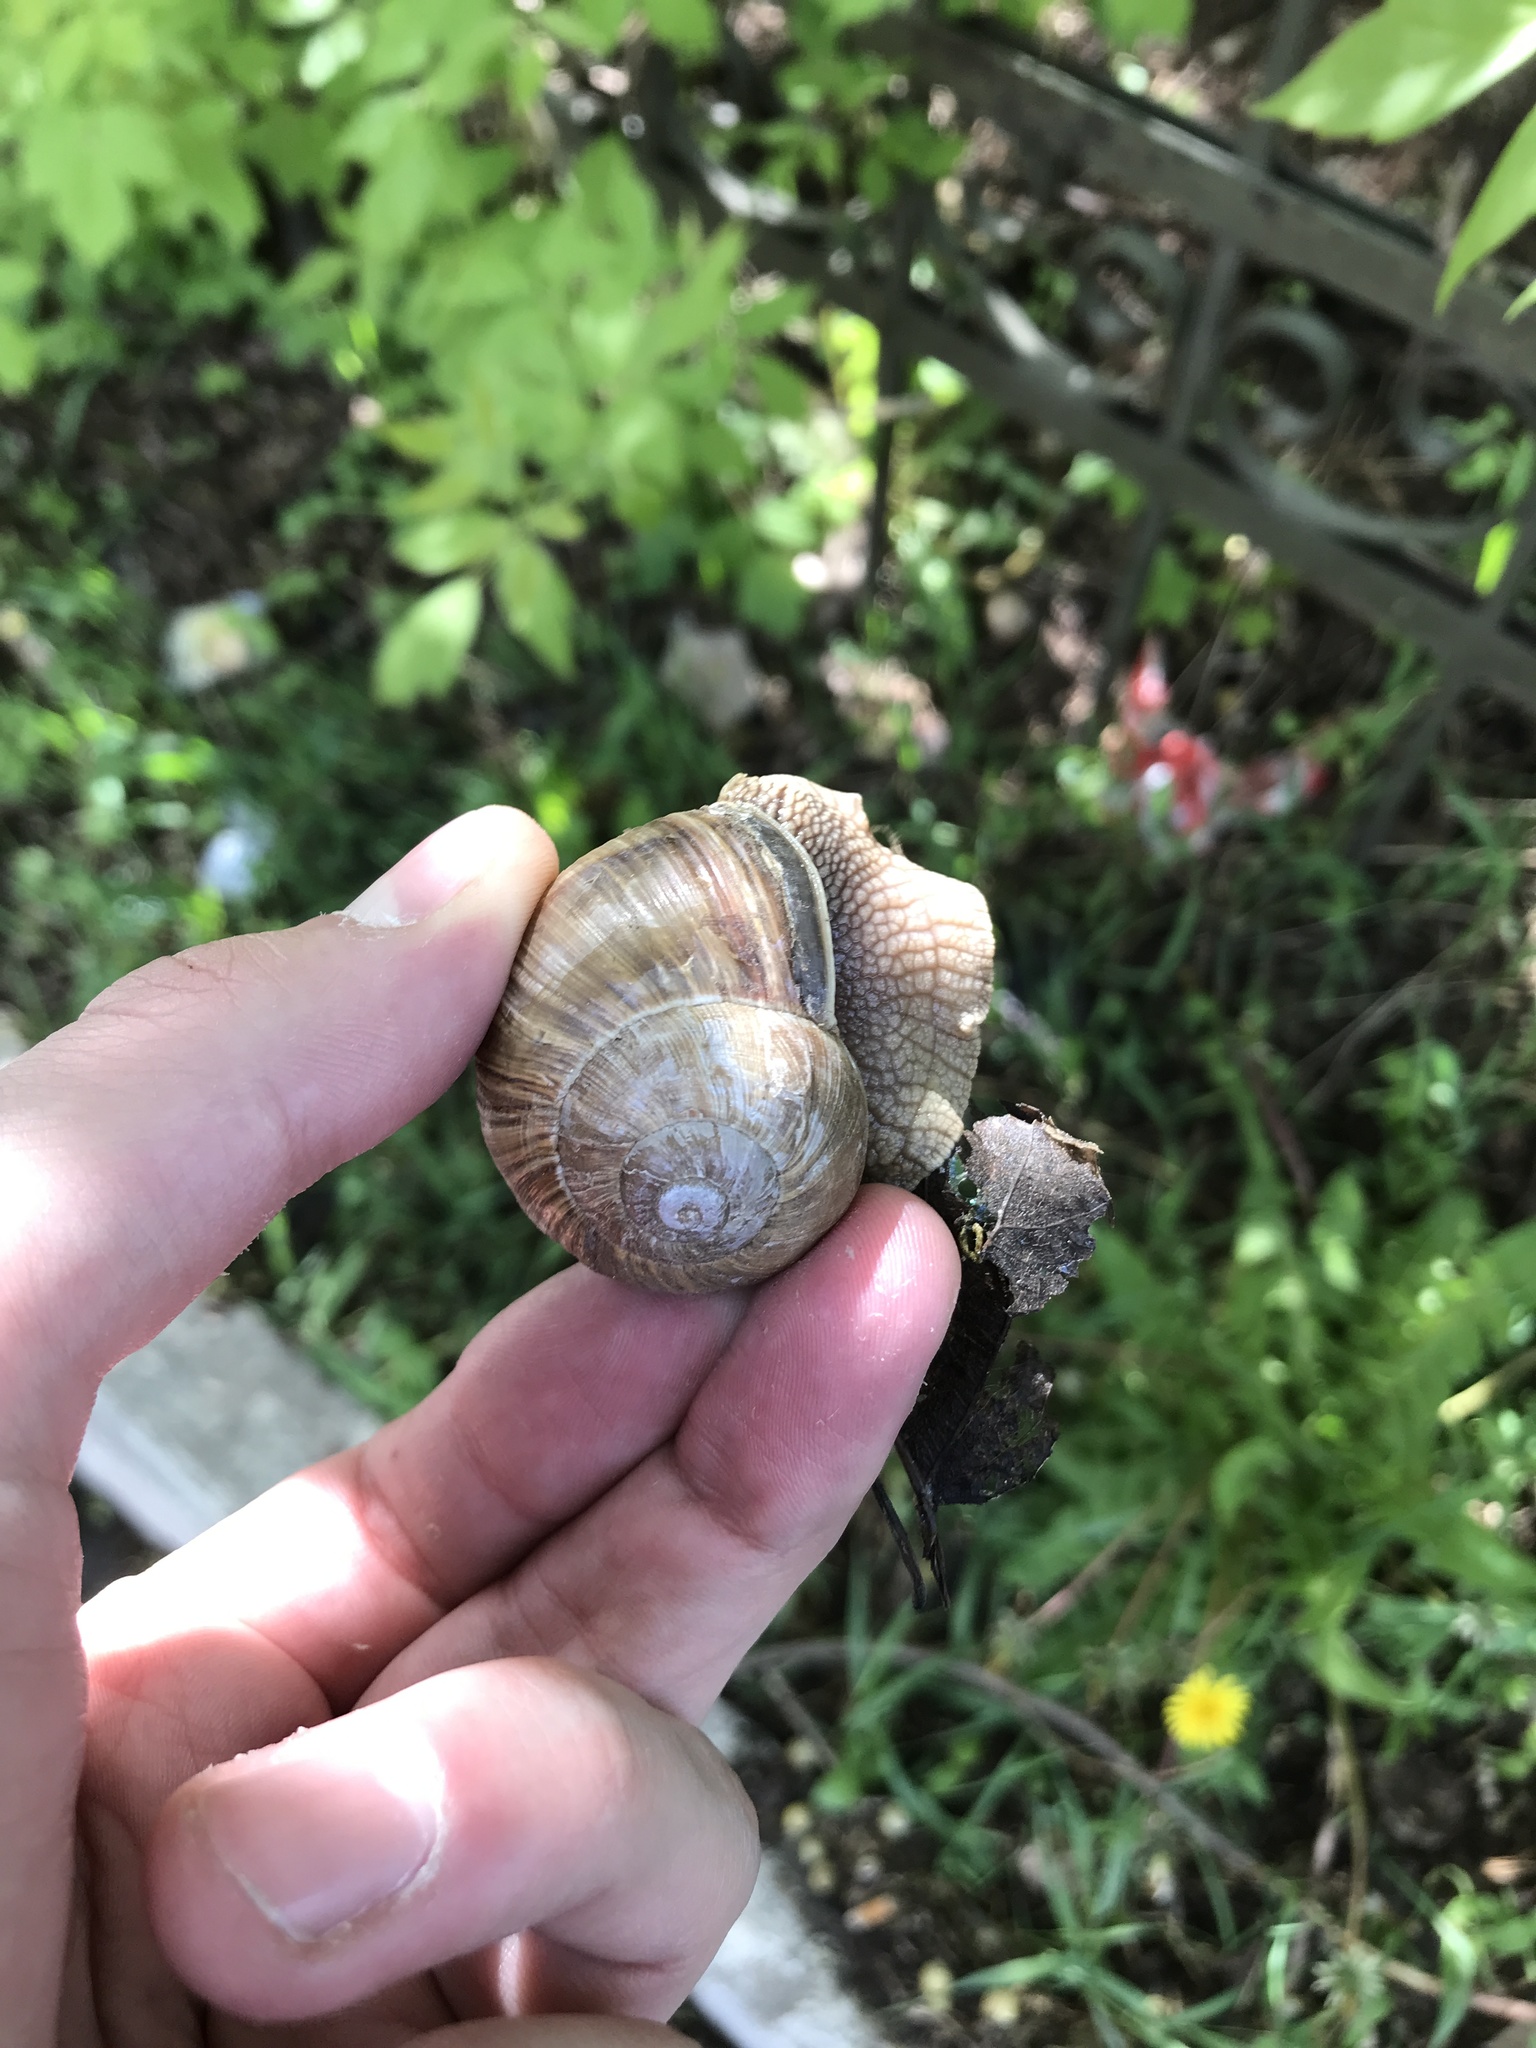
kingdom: Animalia
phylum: Mollusca
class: Gastropoda
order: Stylommatophora
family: Helicidae
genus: Helix
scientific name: Helix pomatia
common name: Roman snail
